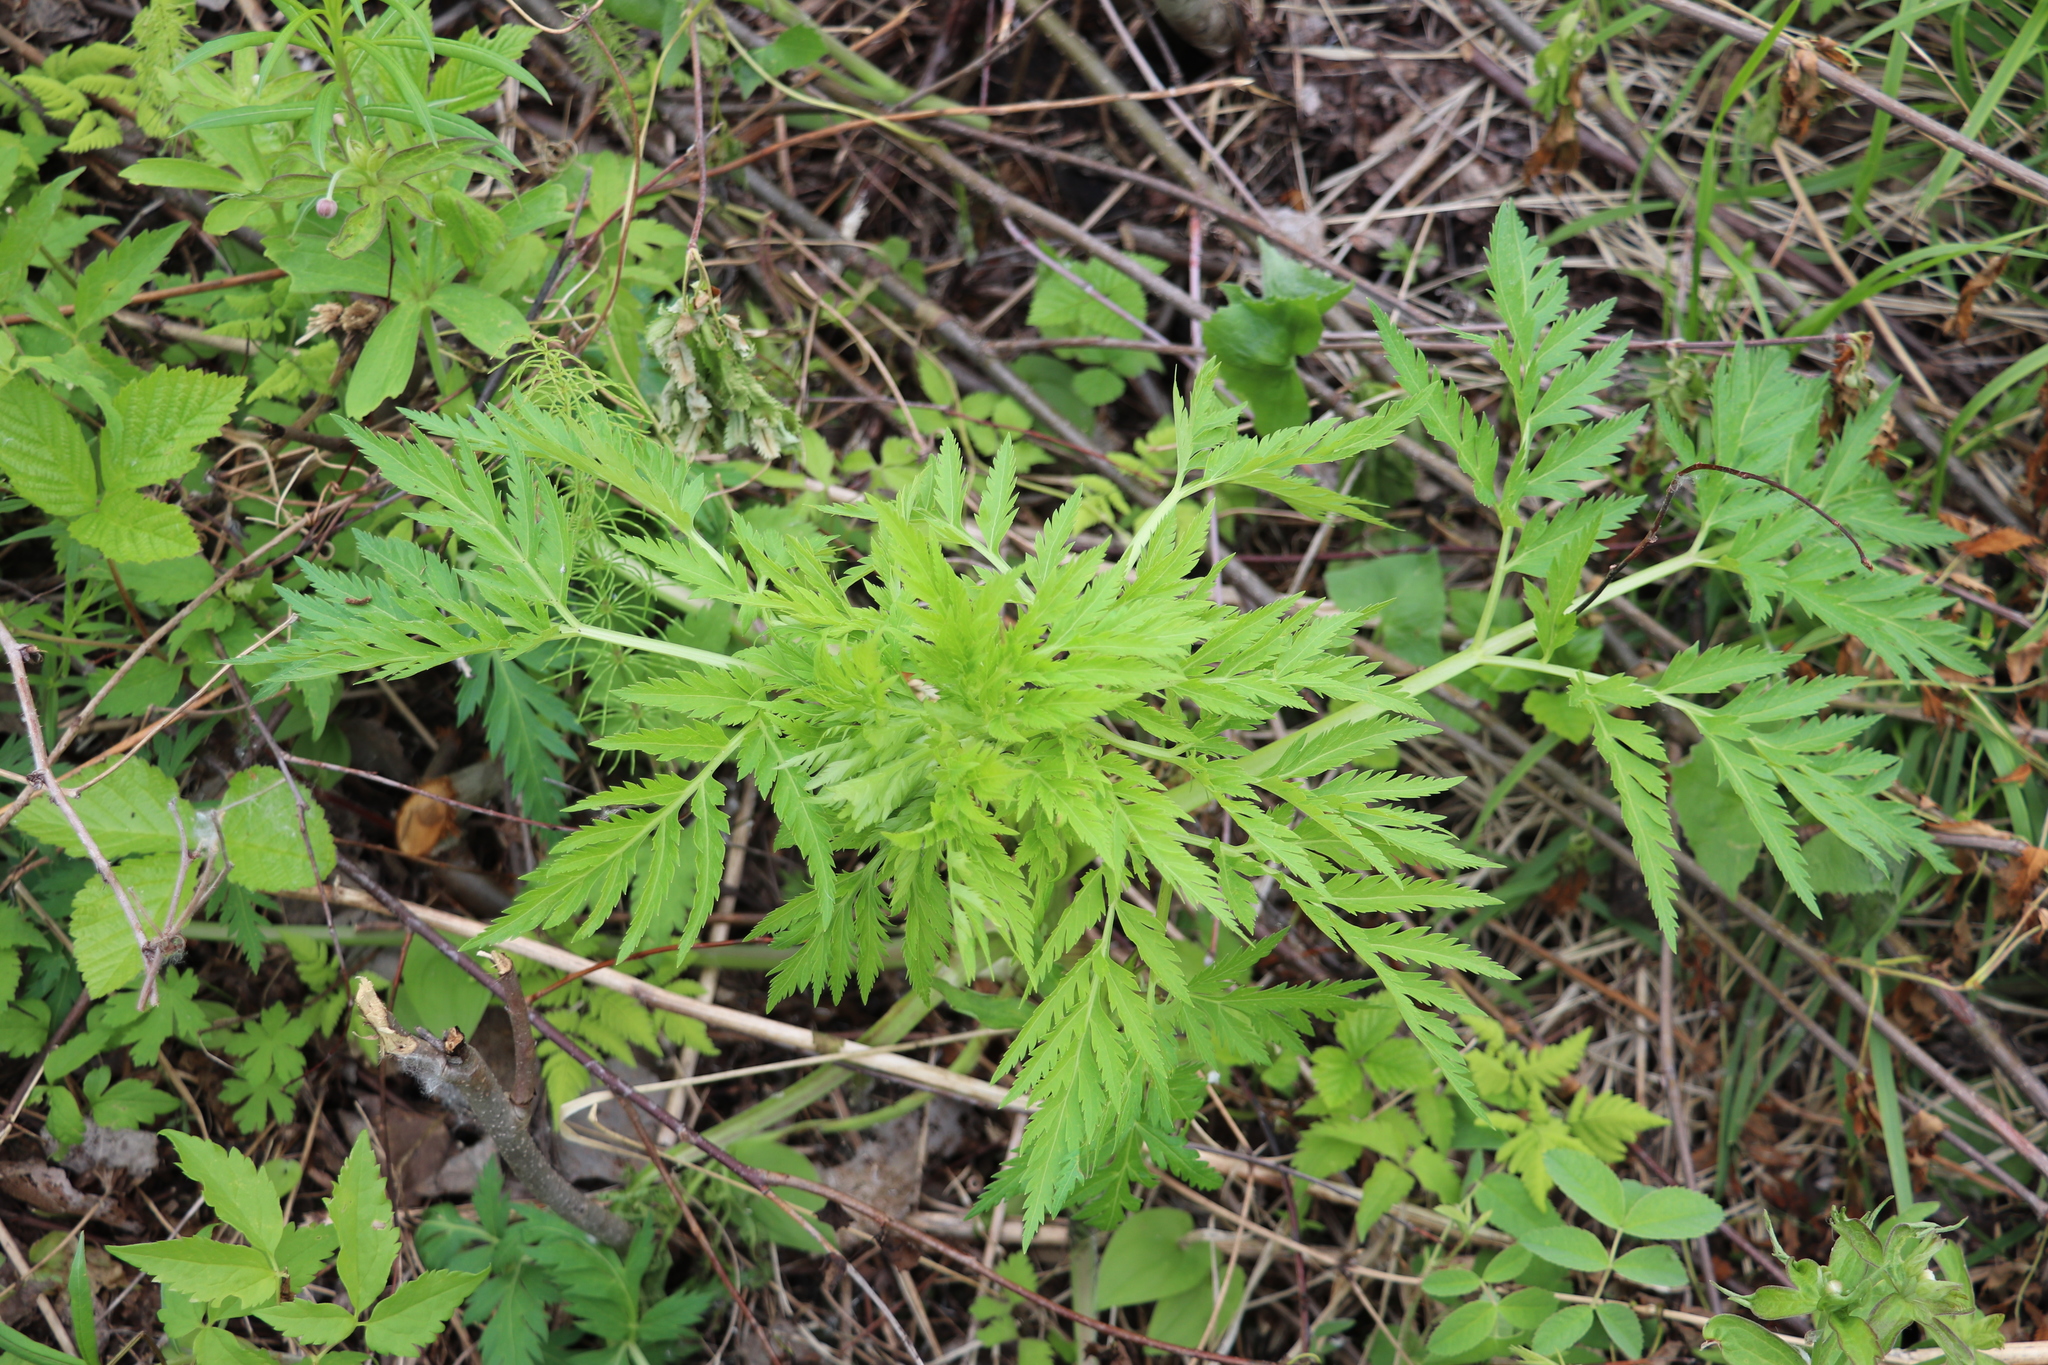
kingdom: Plantae
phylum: Tracheophyta
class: Magnoliopsida
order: Apiales
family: Apiaceae
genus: Pleurospermum
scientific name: Pleurospermum uralense
